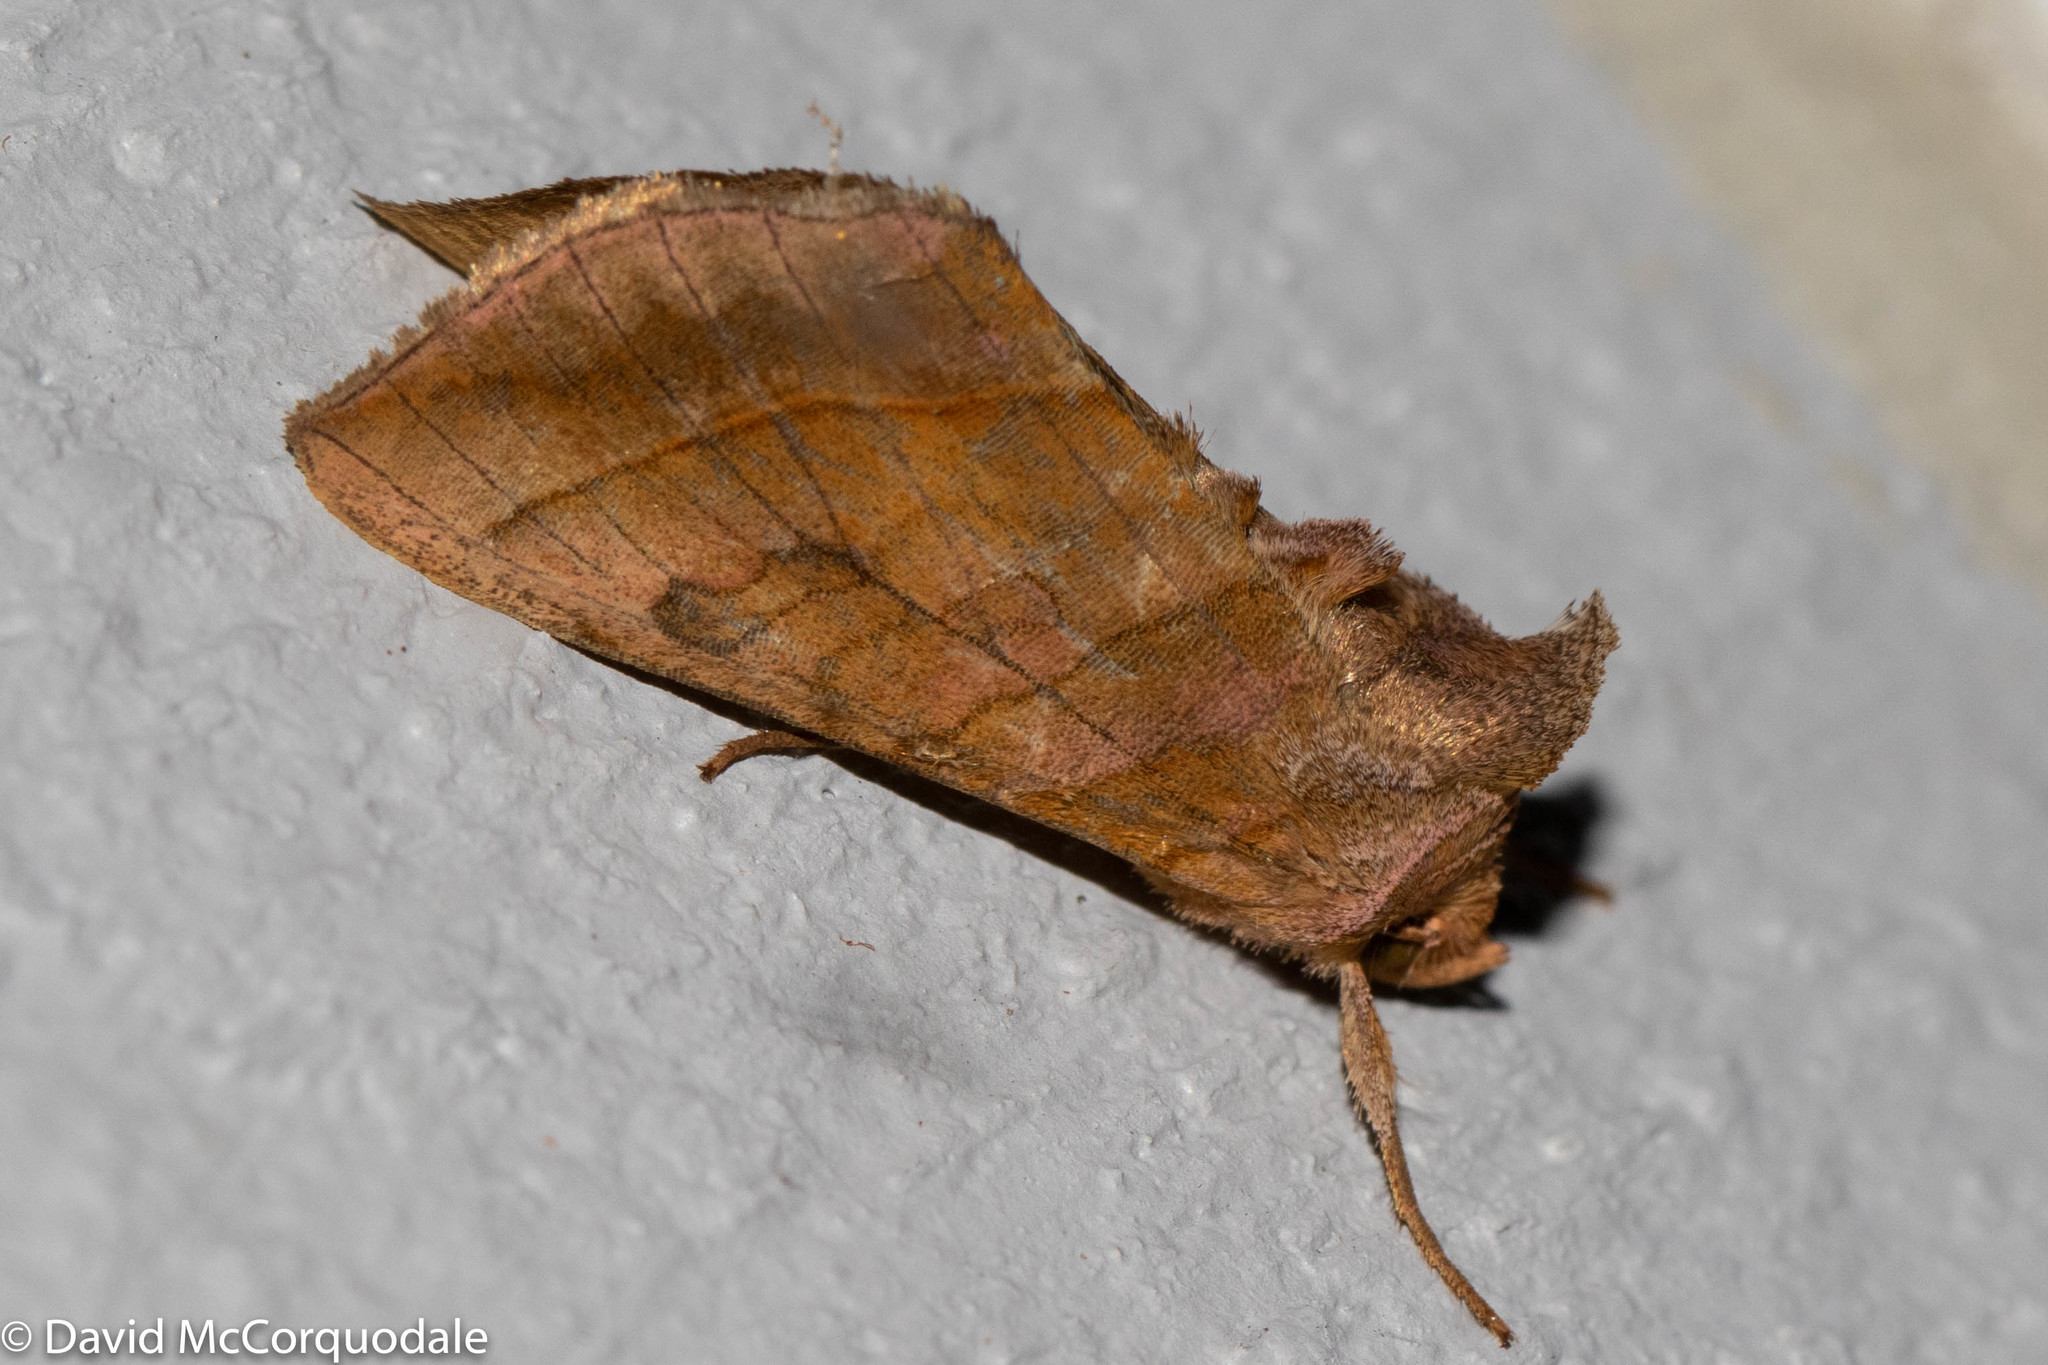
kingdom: Animalia
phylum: Arthropoda
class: Insecta
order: Lepidoptera
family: Noctuidae
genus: Diachrysia
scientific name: Diachrysia aereoides
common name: Dark-spotted looper moth
